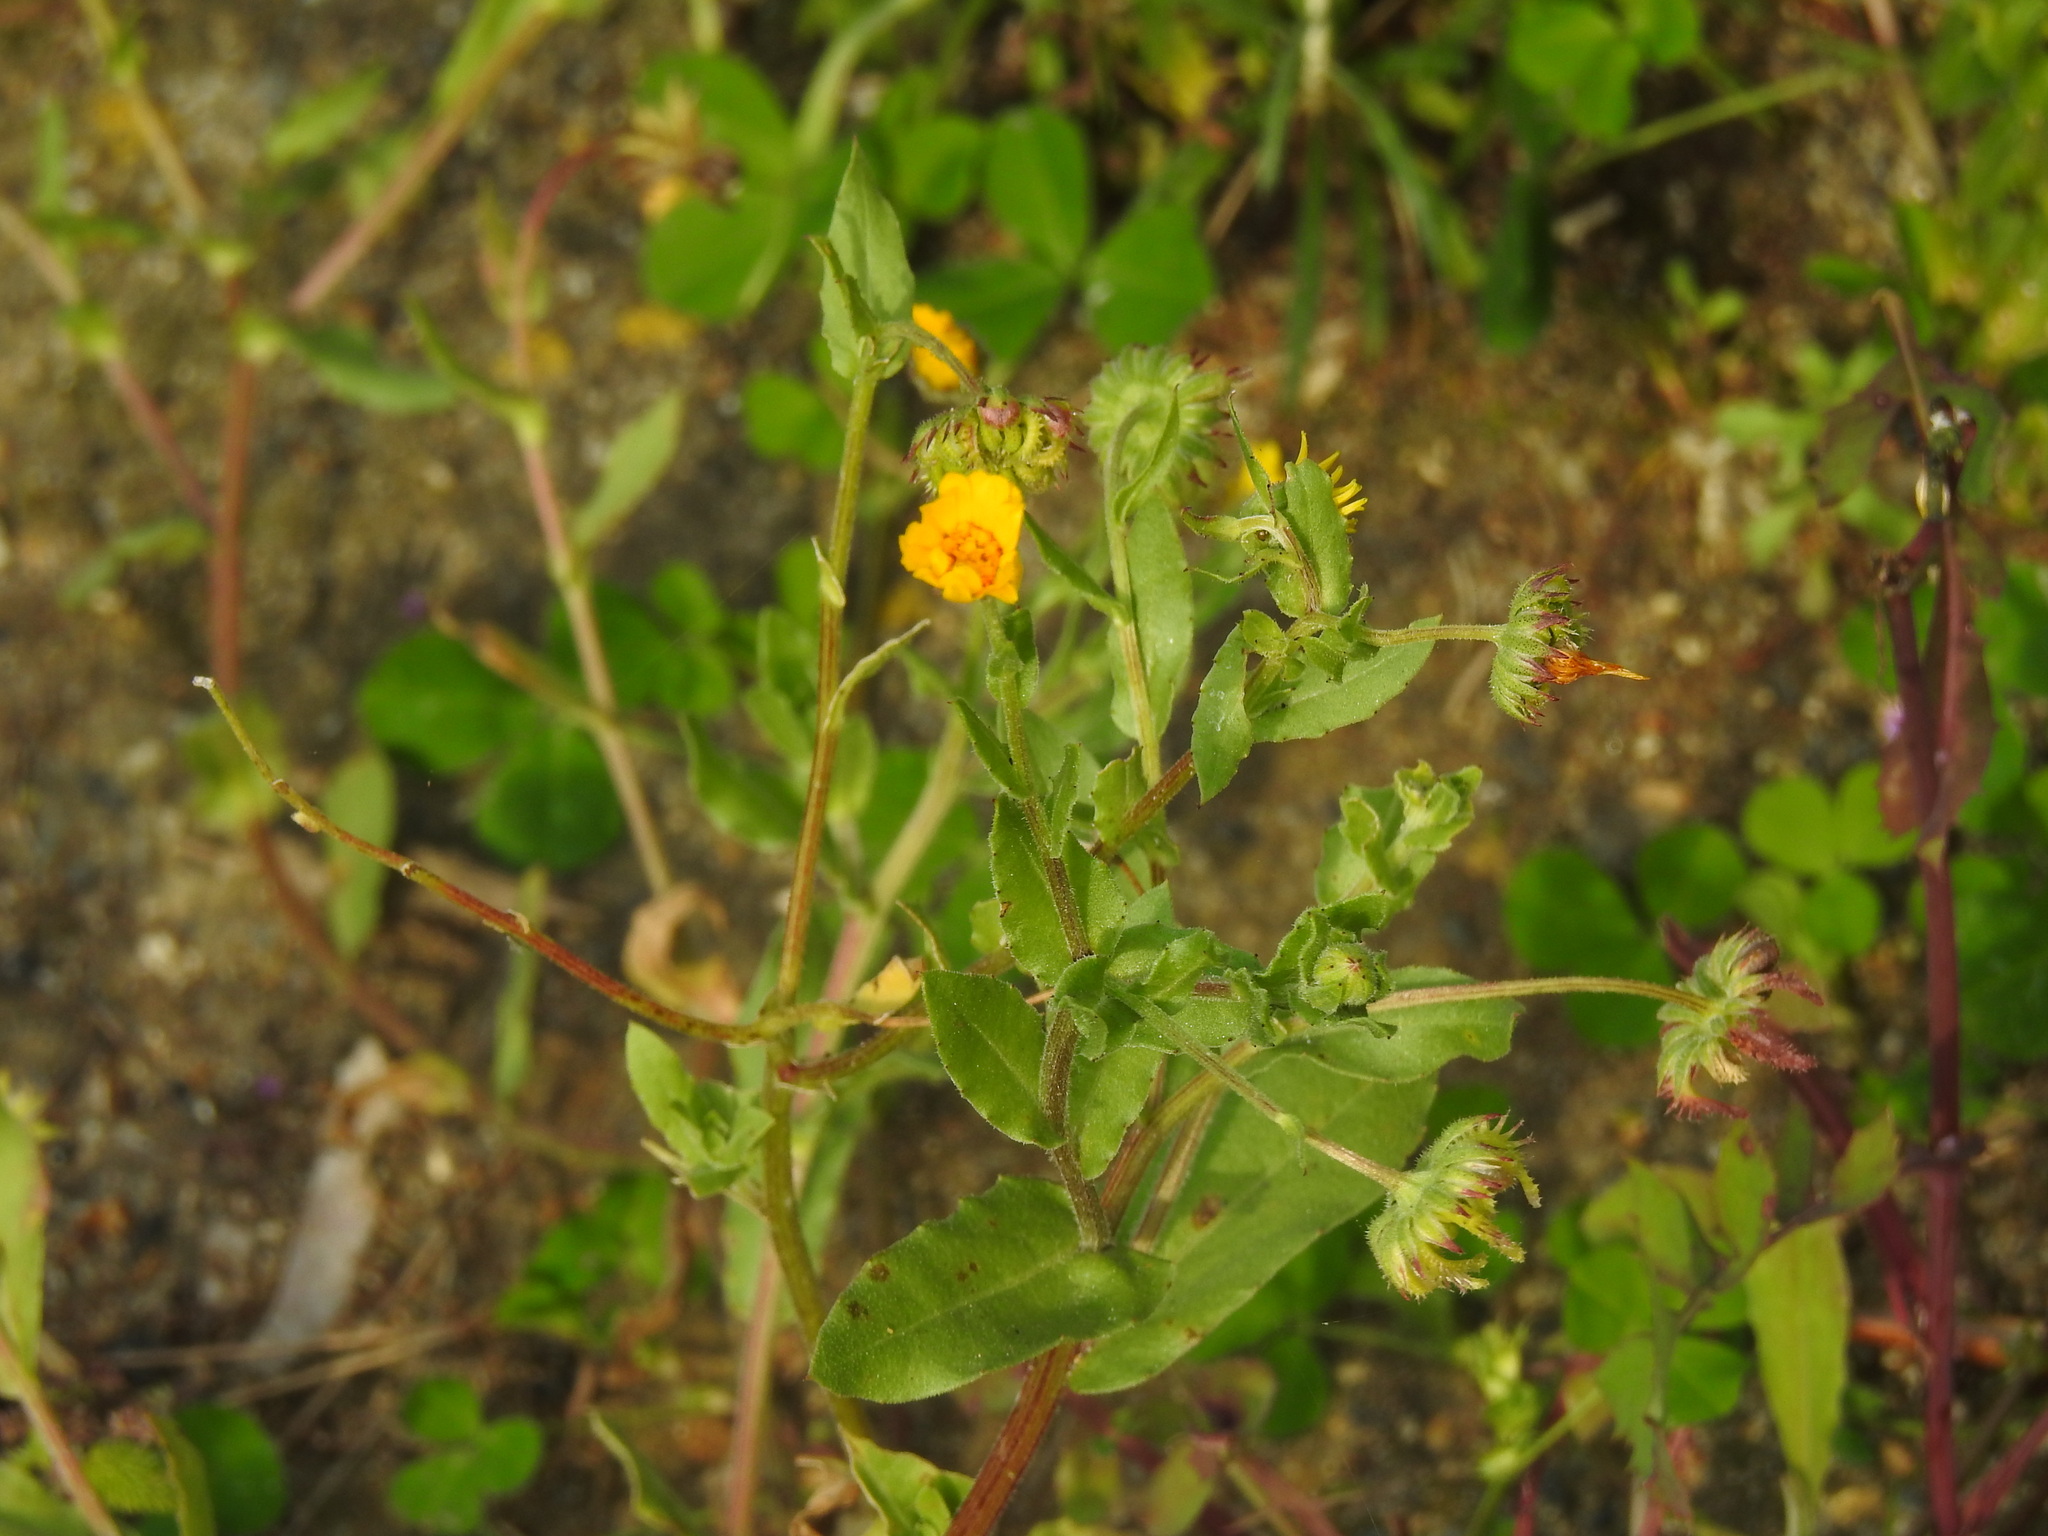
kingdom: Plantae
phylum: Tracheophyta
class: Magnoliopsida
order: Asterales
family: Asteraceae
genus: Calendula
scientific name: Calendula arvensis
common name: Field marigold
